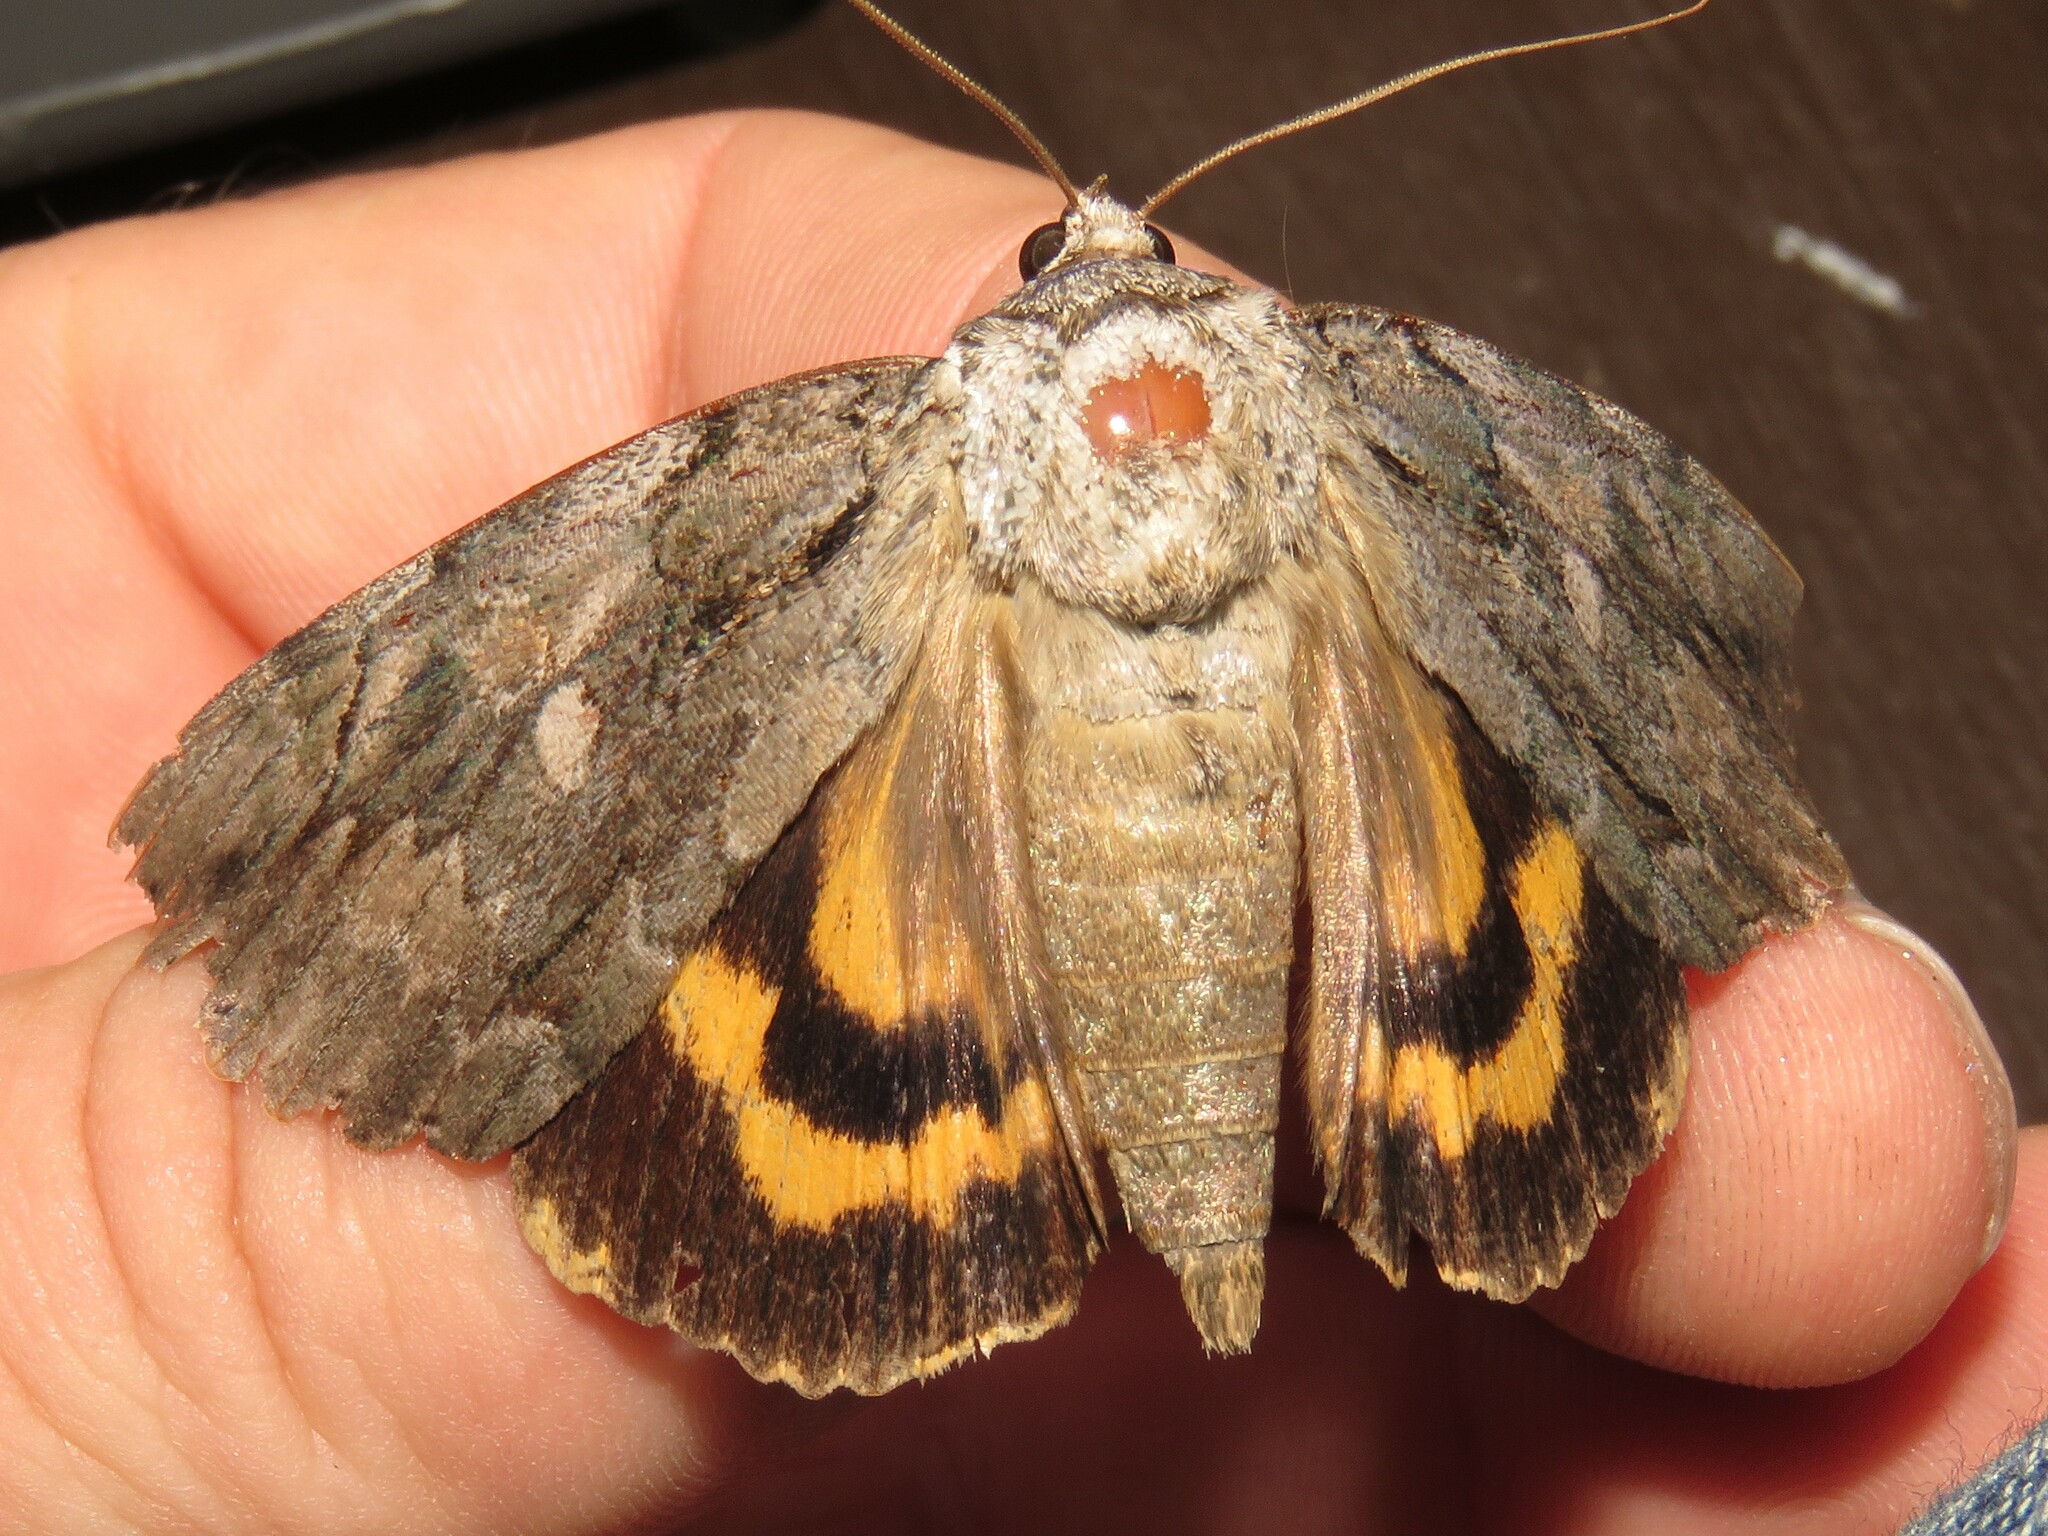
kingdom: Animalia
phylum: Arthropoda
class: Insecta
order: Lepidoptera
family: Erebidae
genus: Catocala
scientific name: Catocala neogama
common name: Bride underwing
